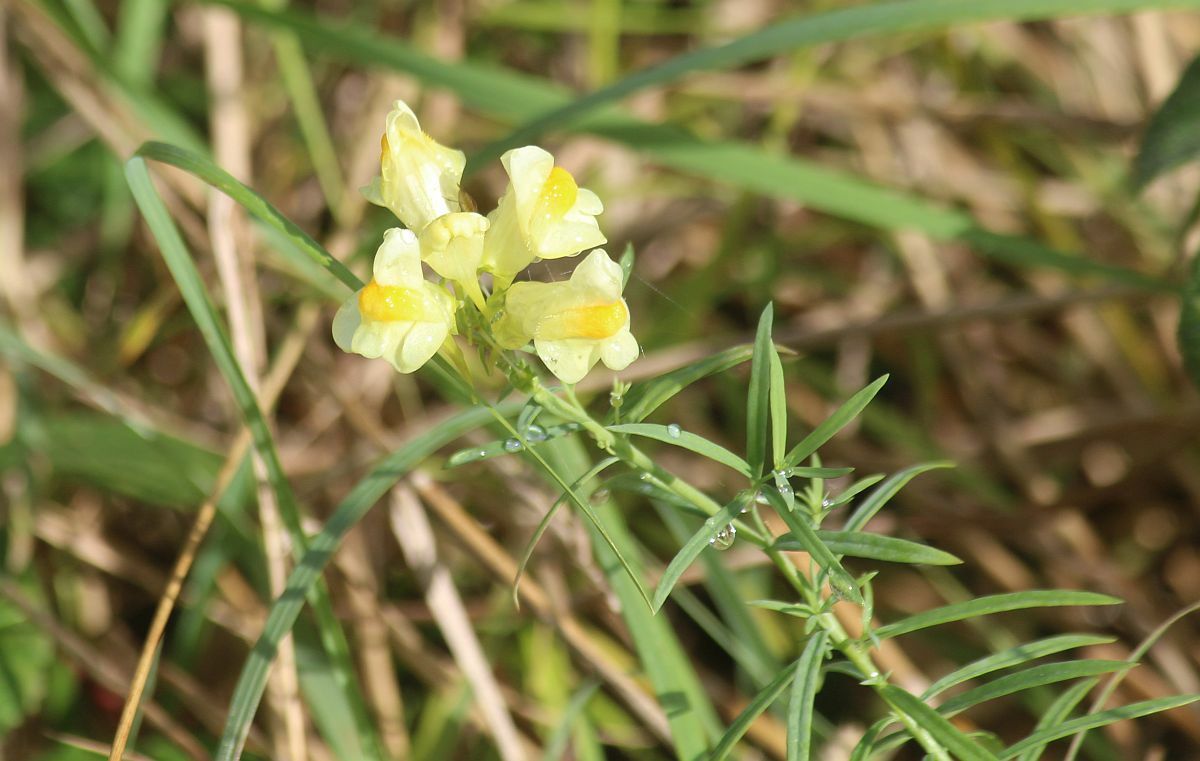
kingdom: Plantae
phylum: Tracheophyta
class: Magnoliopsida
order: Lamiales
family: Plantaginaceae
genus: Linaria
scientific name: Linaria vulgaris
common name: Butter and eggs
